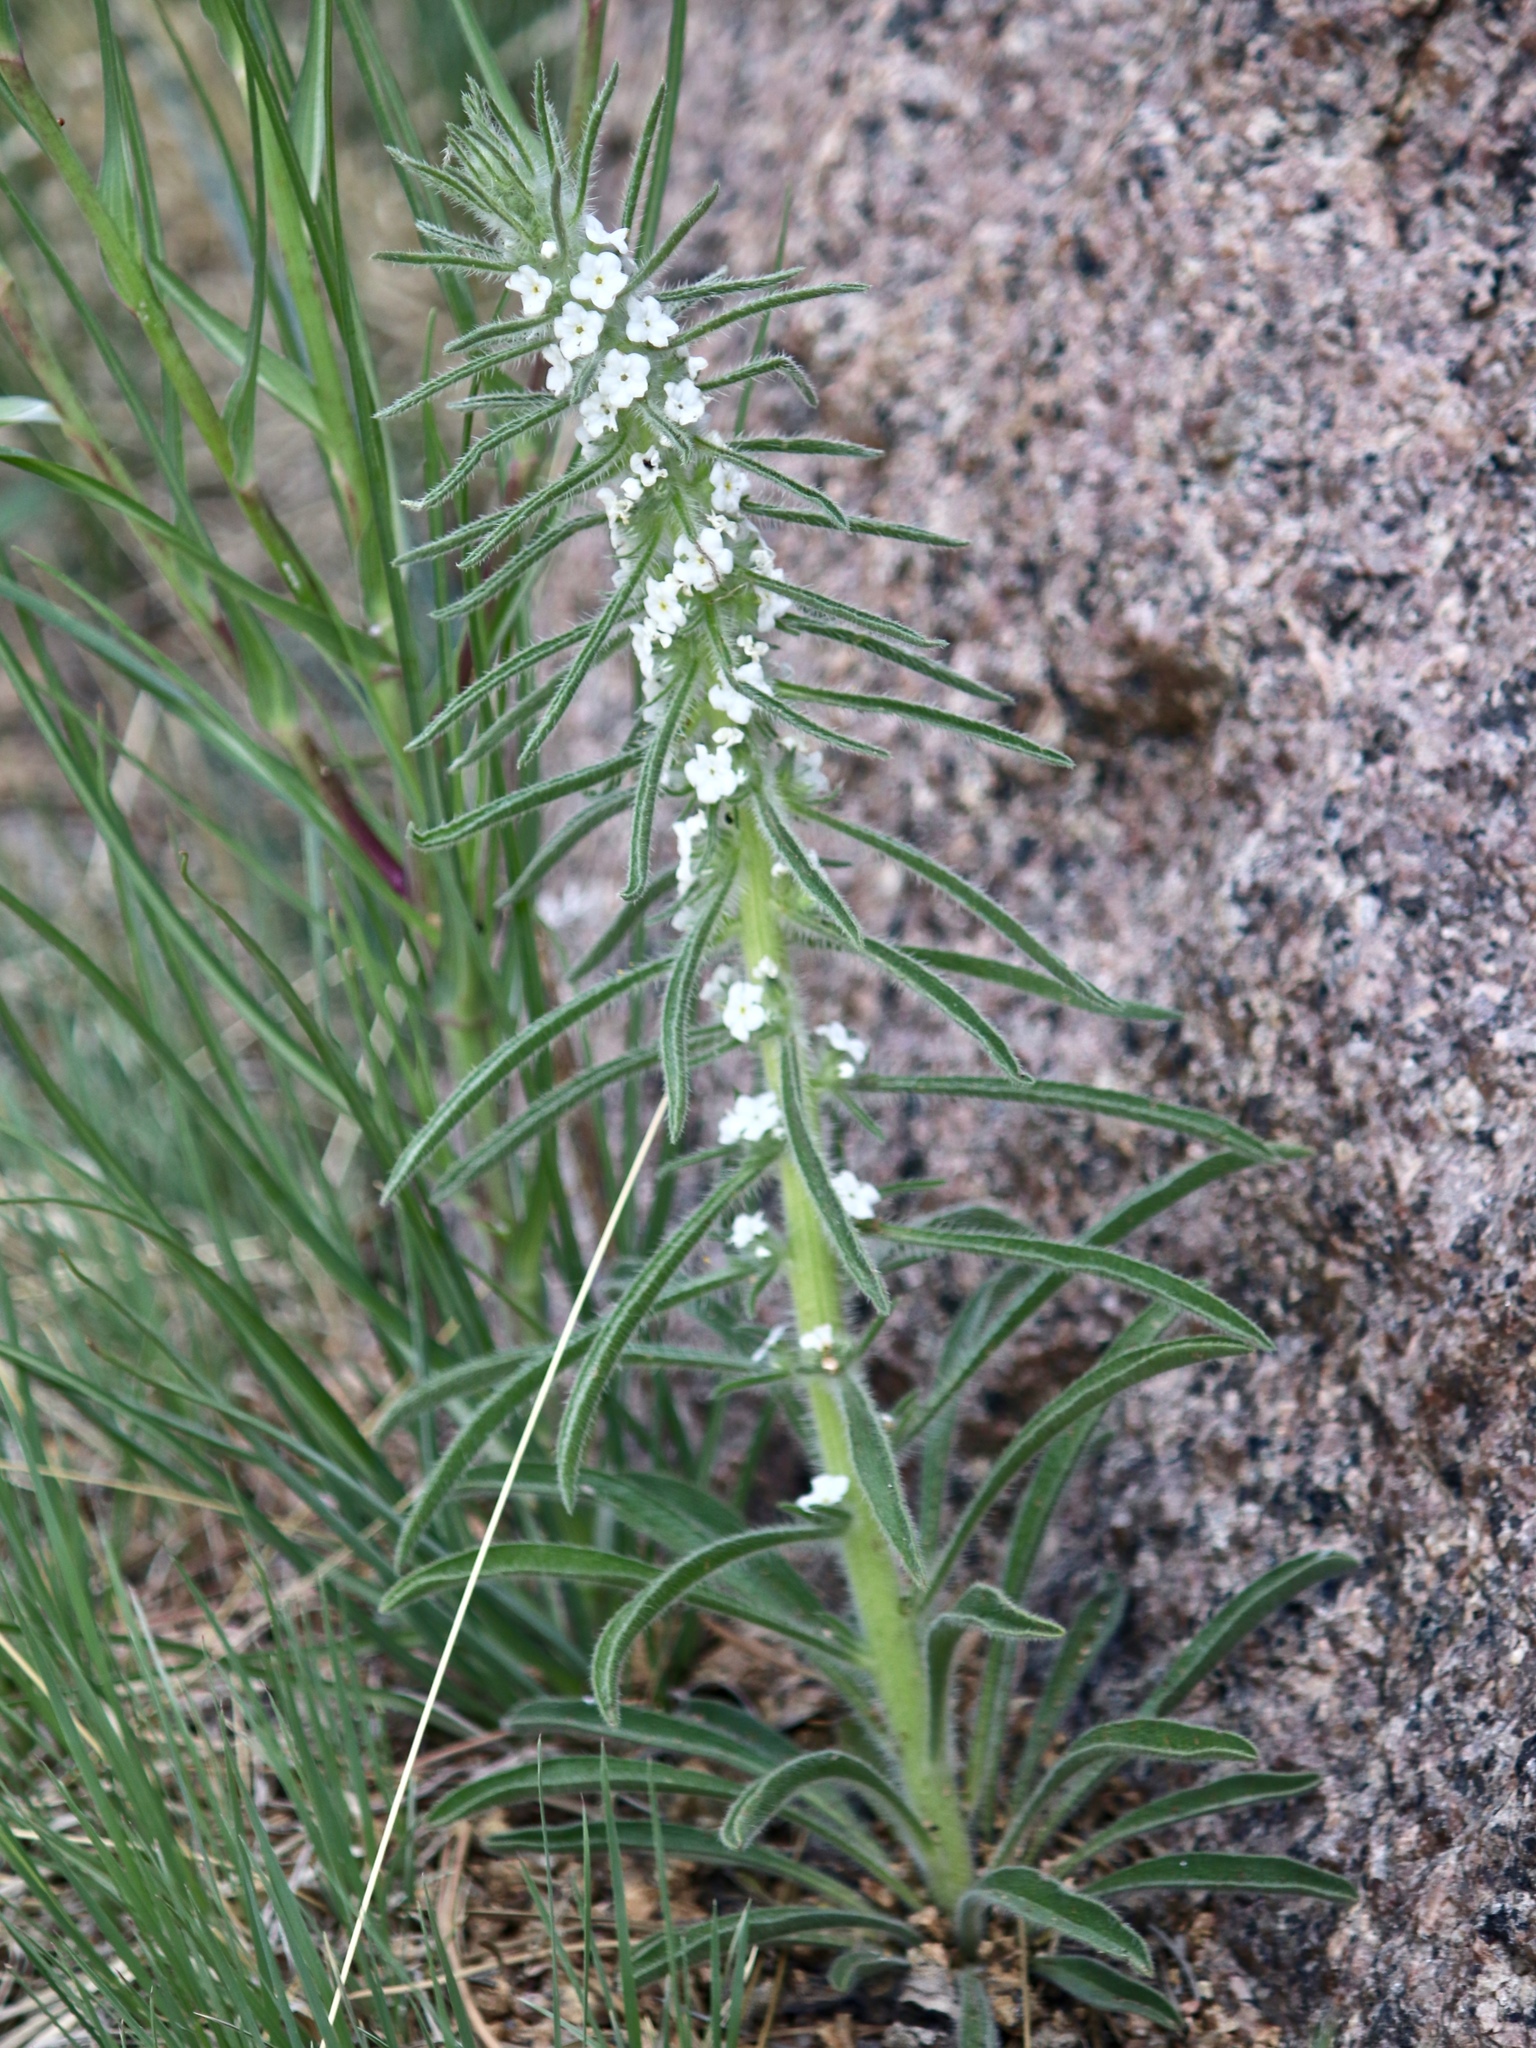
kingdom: Plantae
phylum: Tracheophyta
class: Magnoliopsida
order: Boraginales
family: Boraginaceae
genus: Oreocarya
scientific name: Oreocarya virgata
